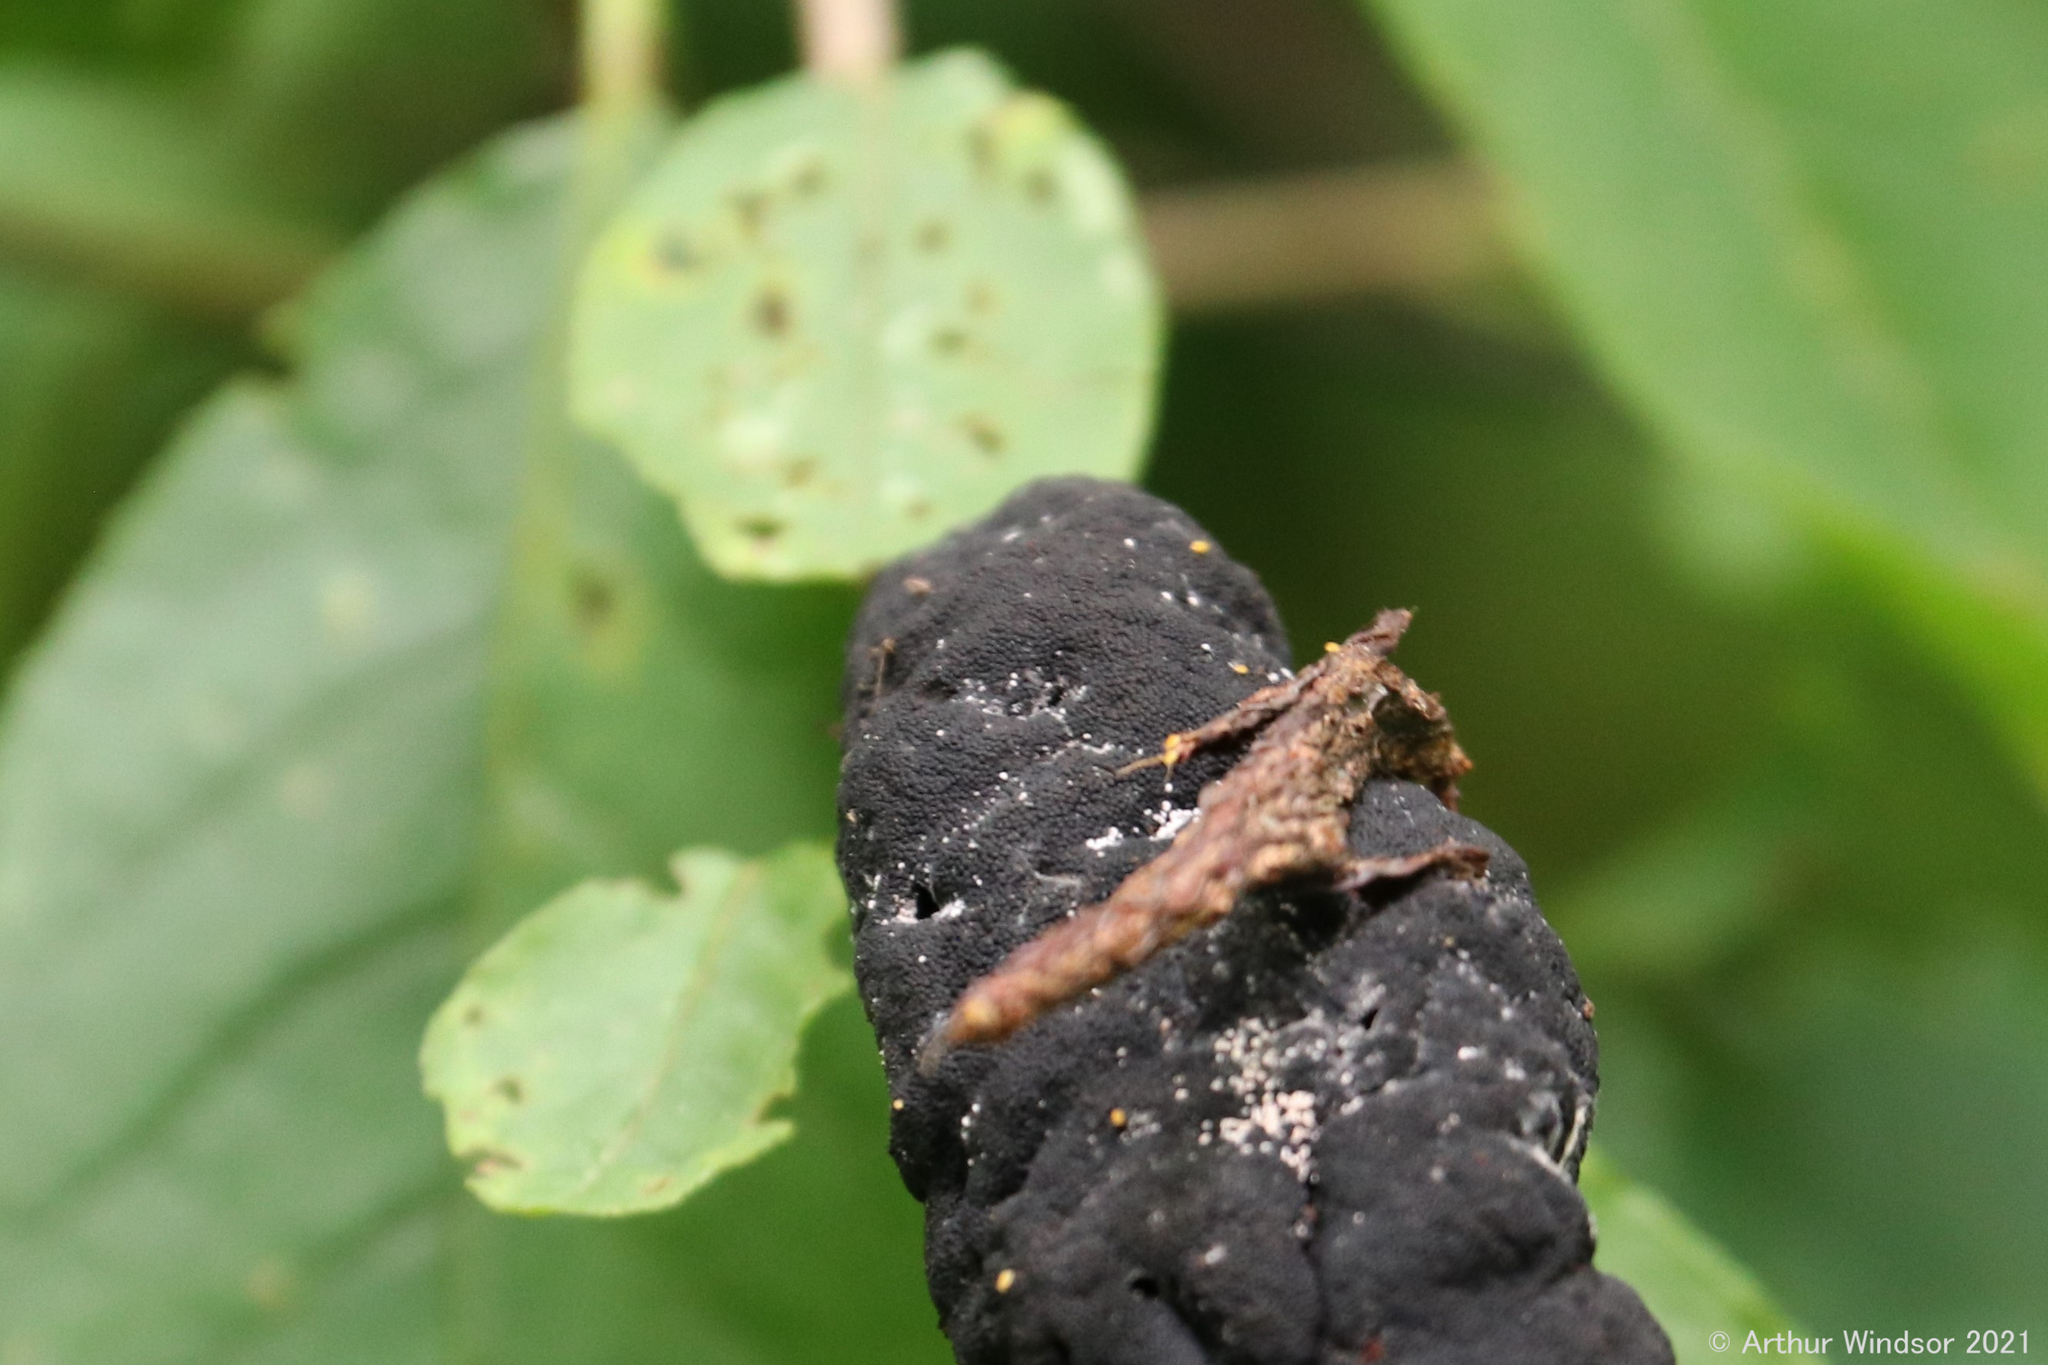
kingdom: Fungi
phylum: Ascomycota
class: Dothideomycetes
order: Venturiales
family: Venturiaceae
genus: Apiosporina
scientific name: Apiosporina morbosa
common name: Black knot
